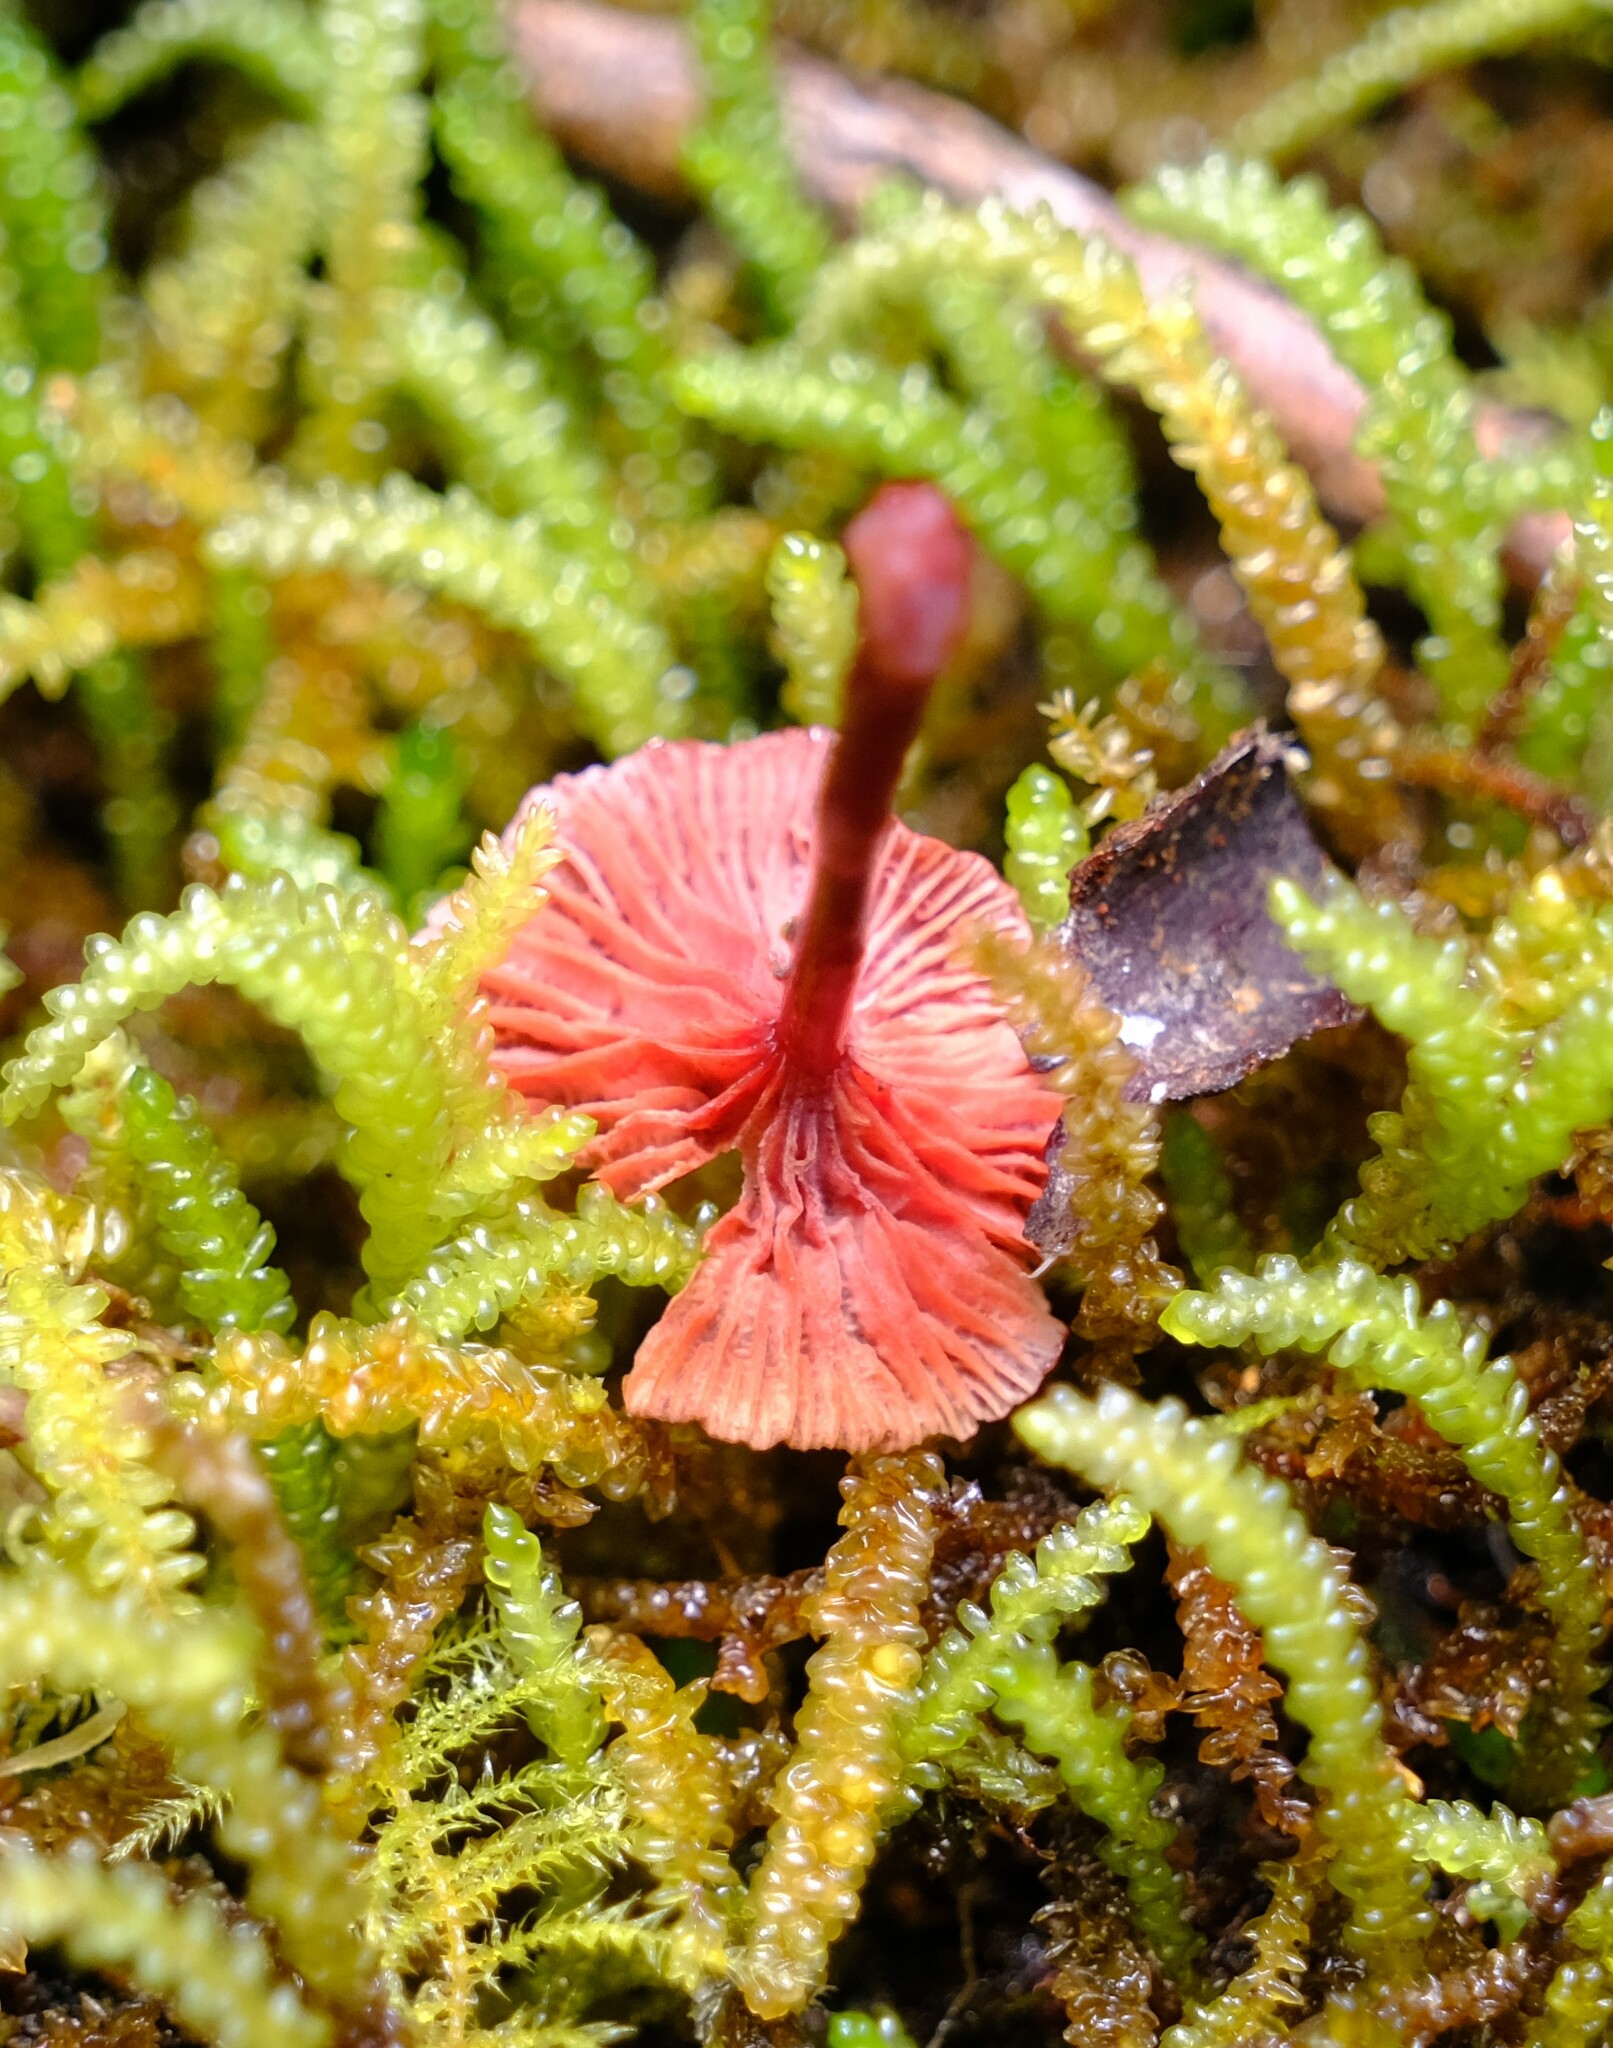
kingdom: Fungi
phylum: Basidiomycota
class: Agaricomycetes
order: Agaricales
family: Mycenaceae
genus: Cruentomycena
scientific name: Cruentomycena viscidocruenta
